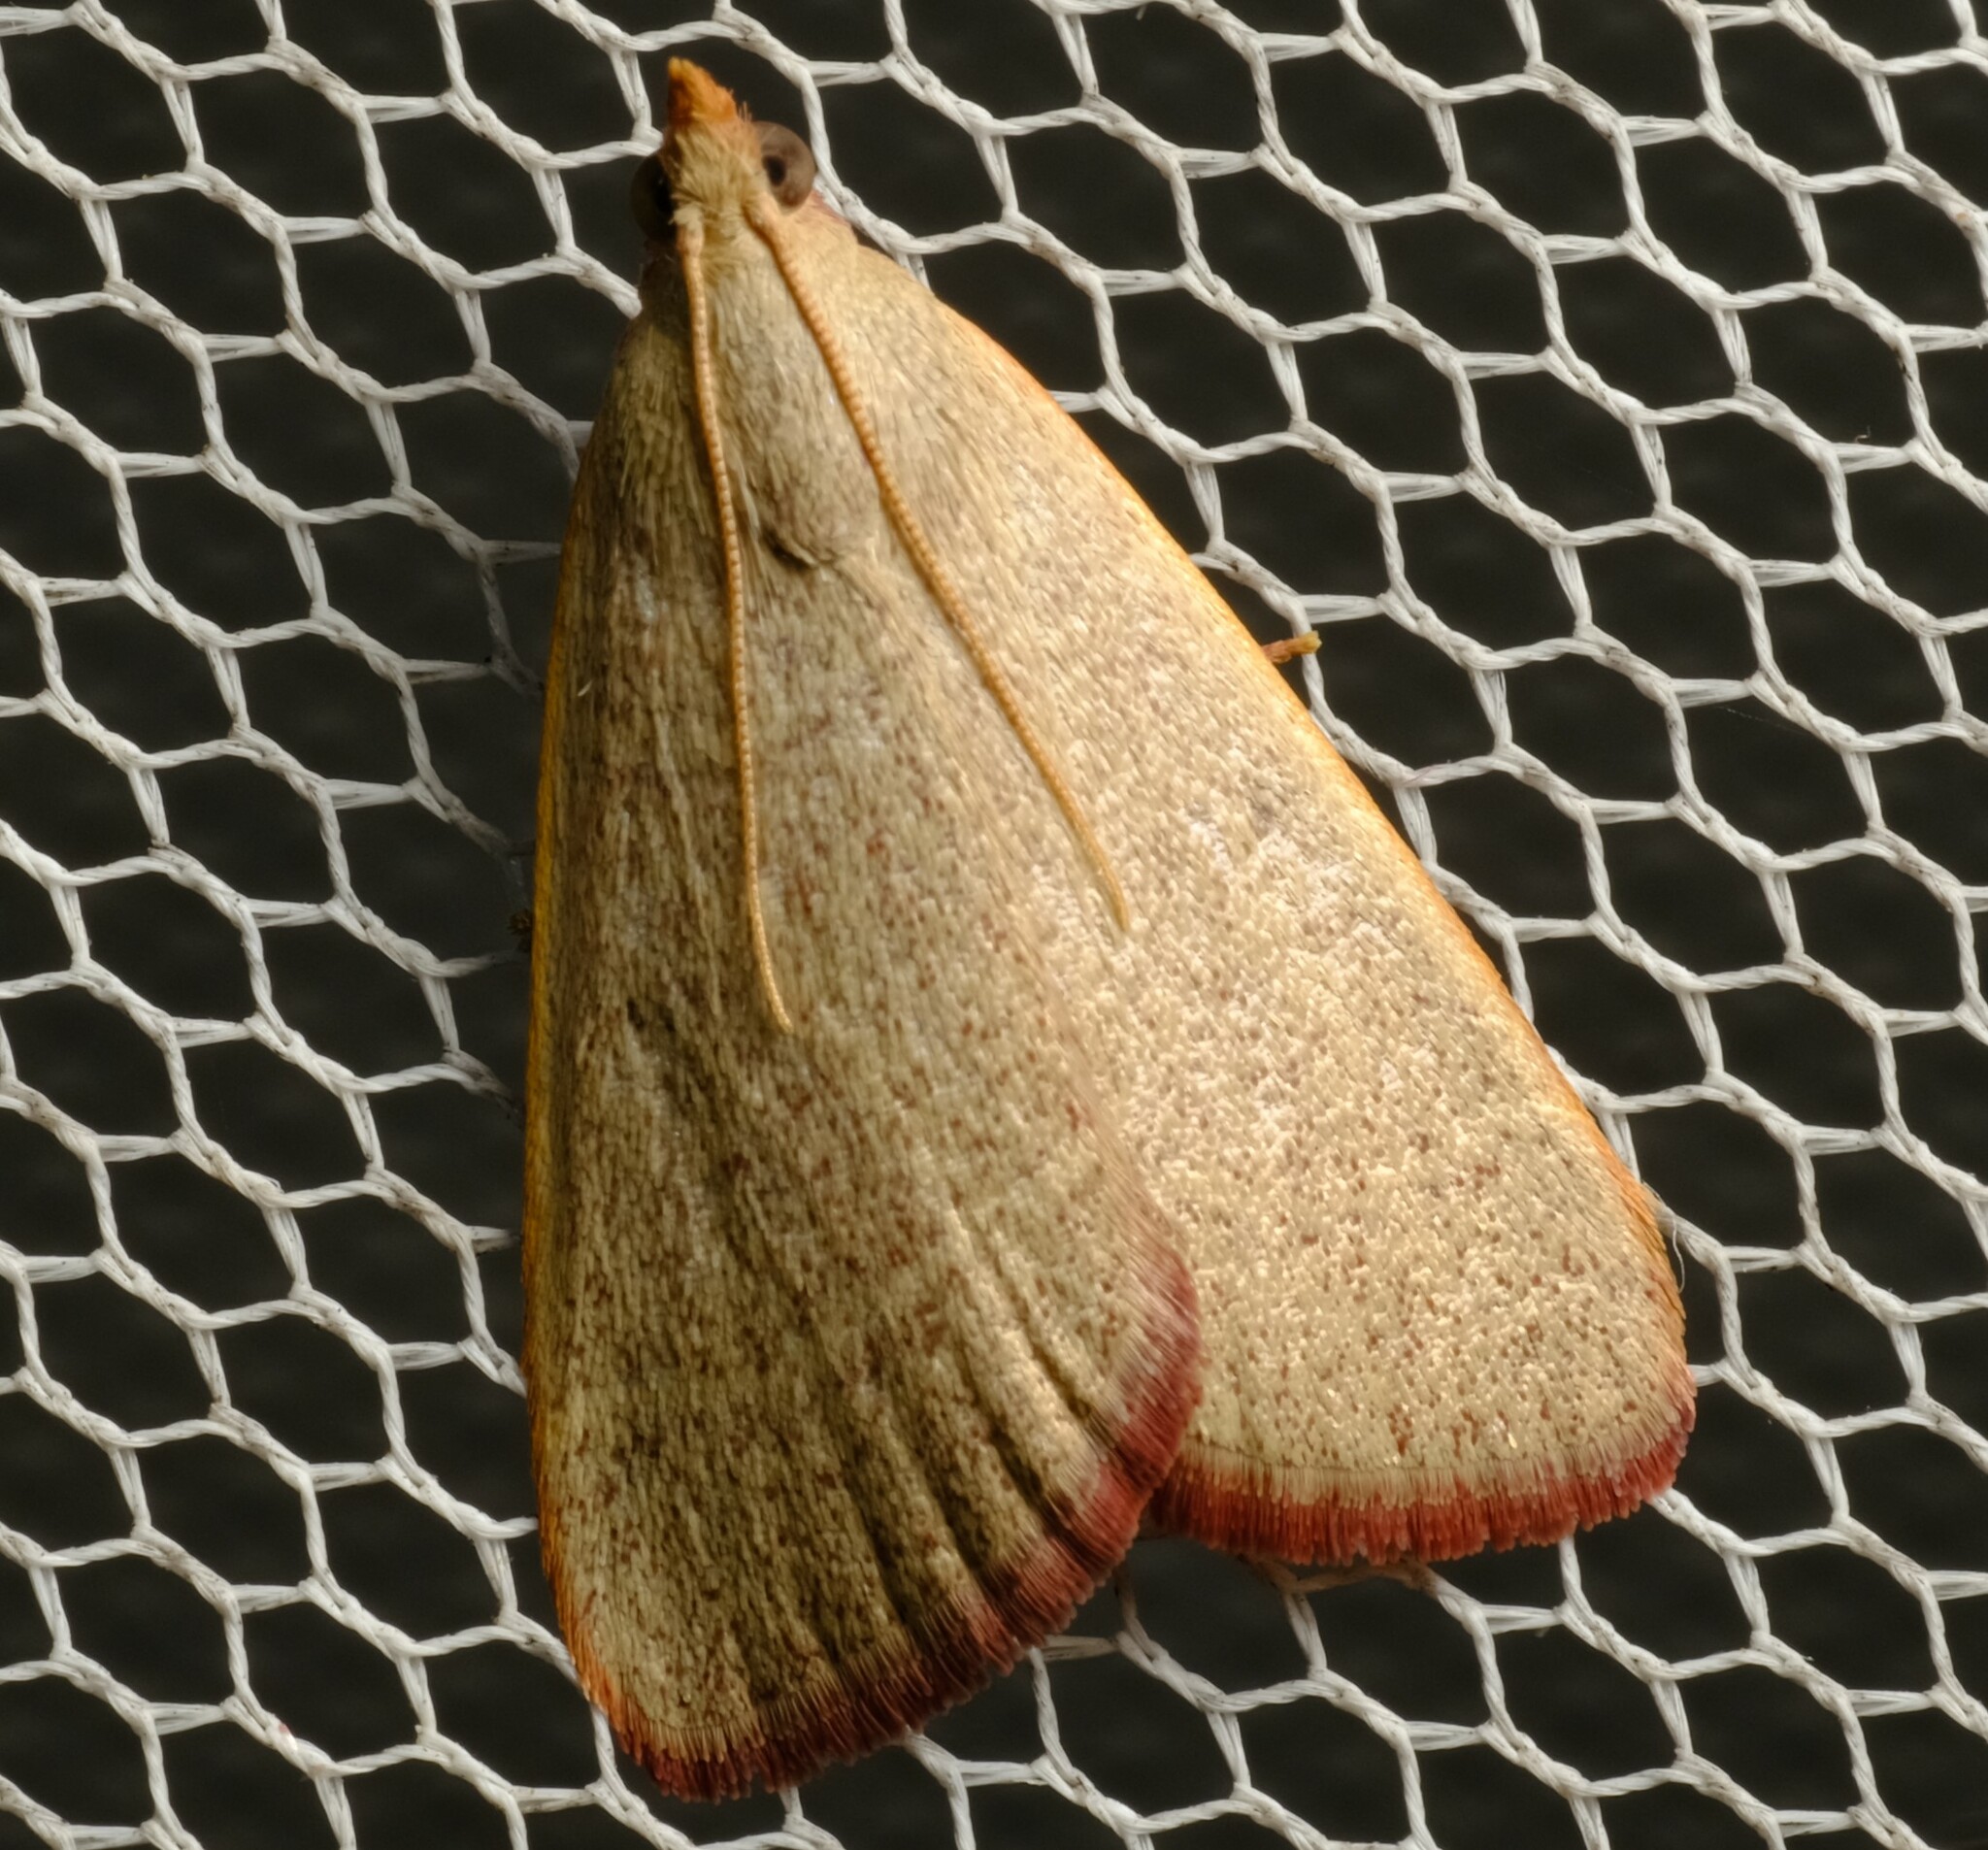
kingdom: Animalia
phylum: Arthropoda
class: Insecta
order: Lepidoptera
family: Pyralidae
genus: Hypsopygia
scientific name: Hypsopygia
